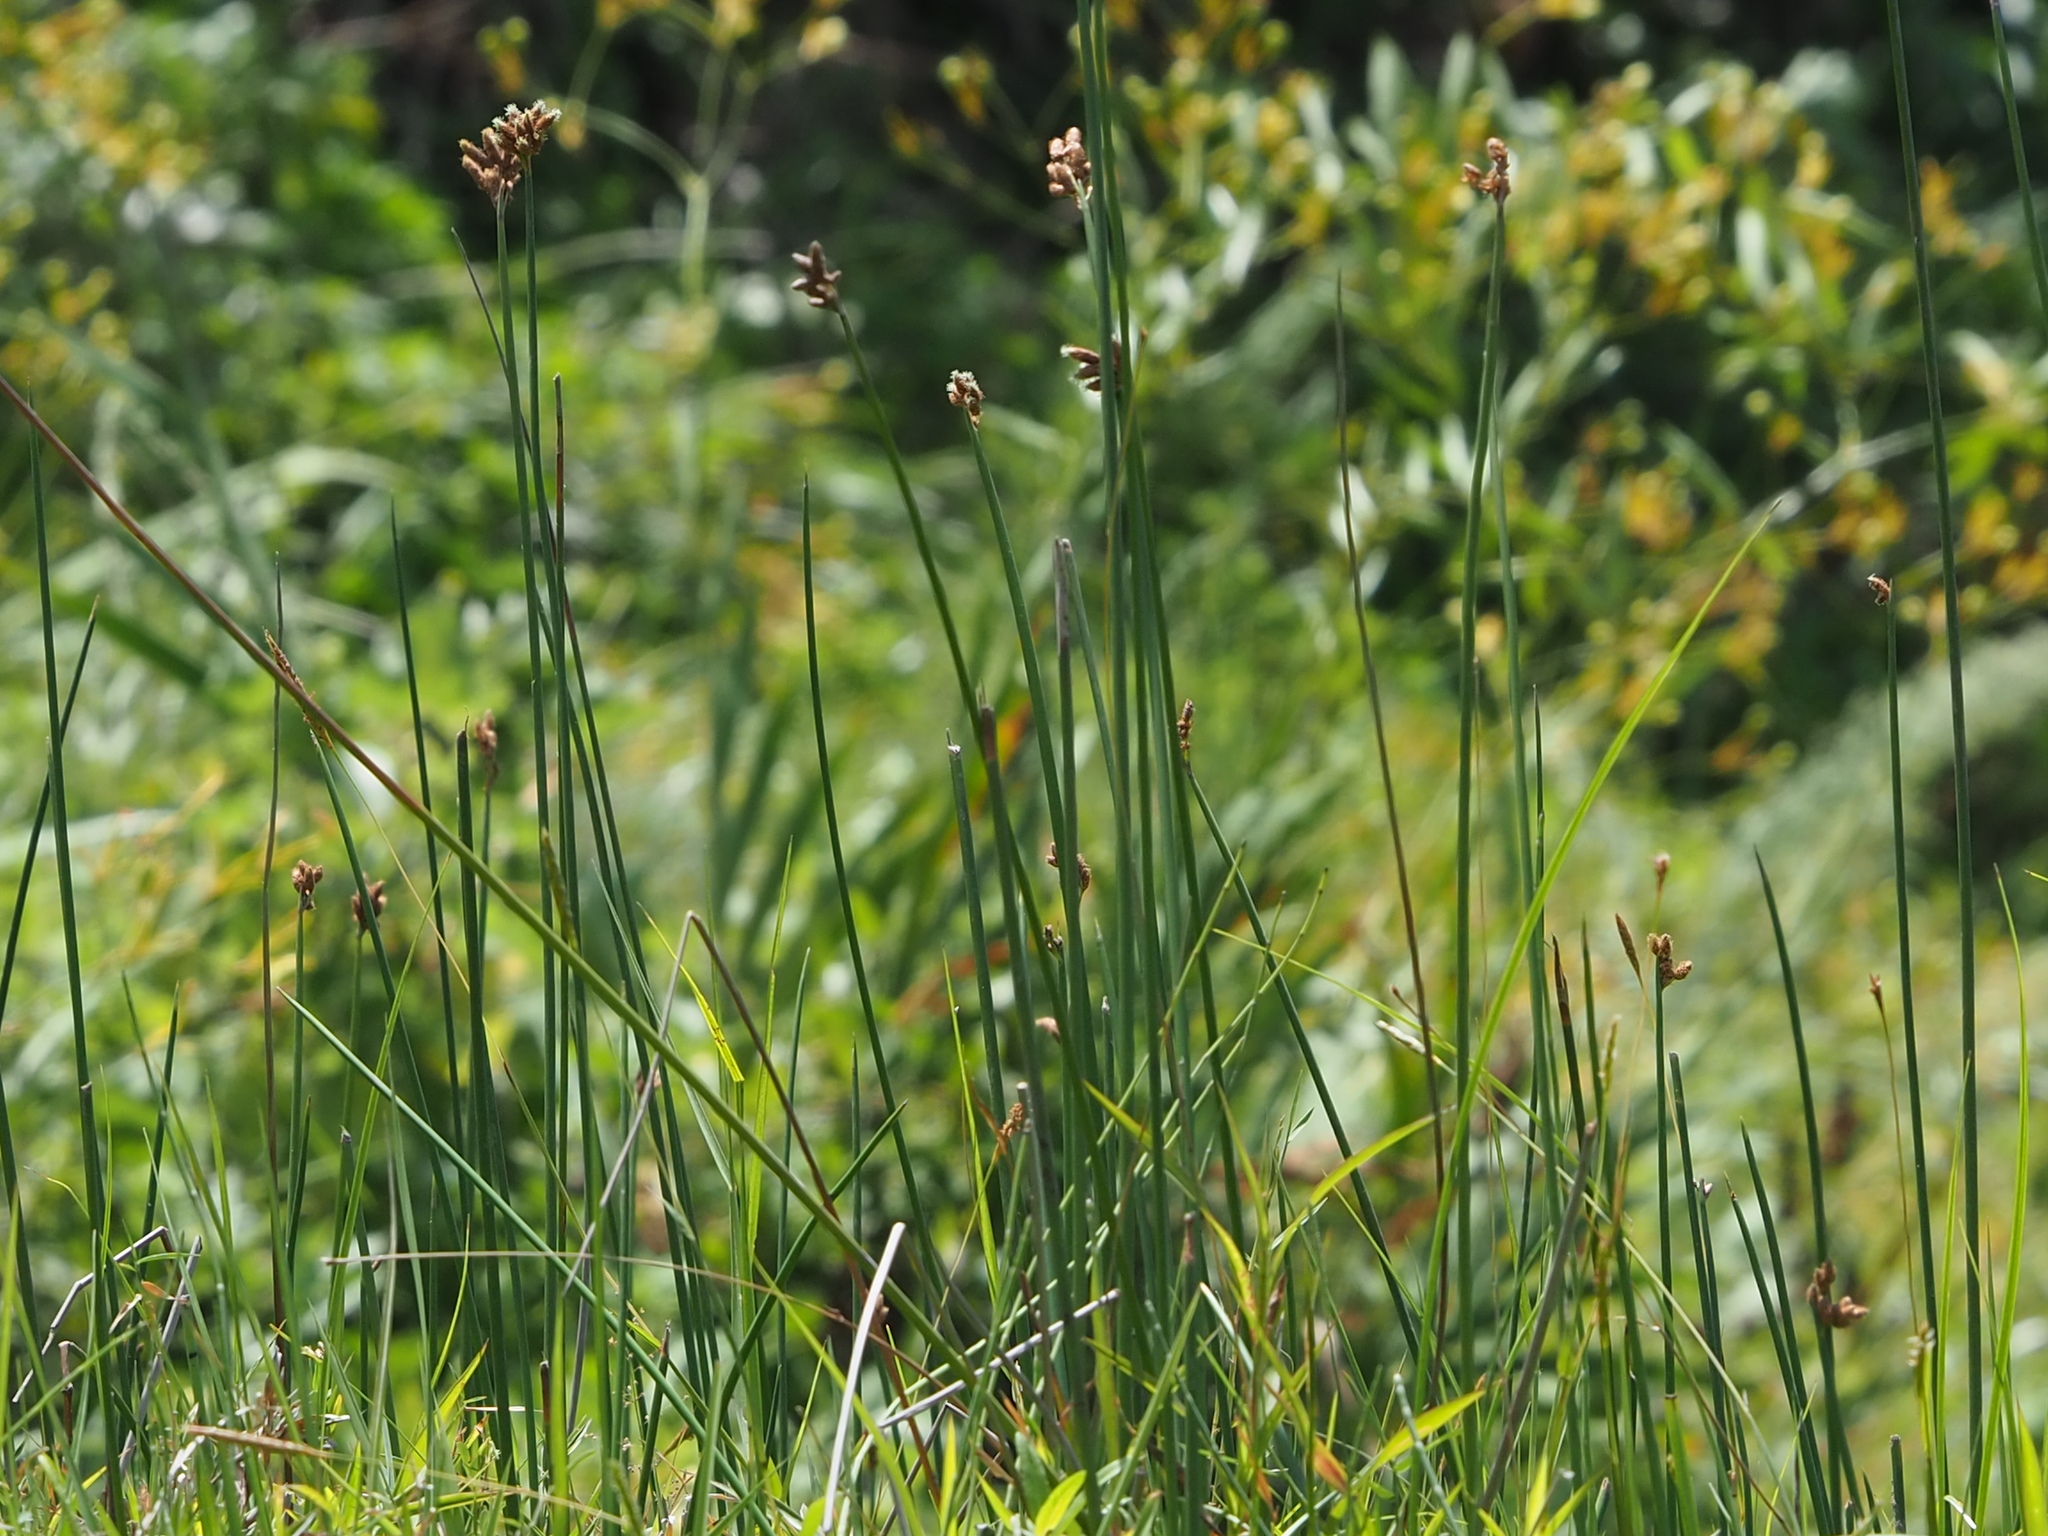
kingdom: Plantae
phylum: Tracheophyta
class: Liliopsida
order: Poales
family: Cyperaceae
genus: Schoenoplectus
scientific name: Schoenoplectus tabernaemontani
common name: Grey club-rush
